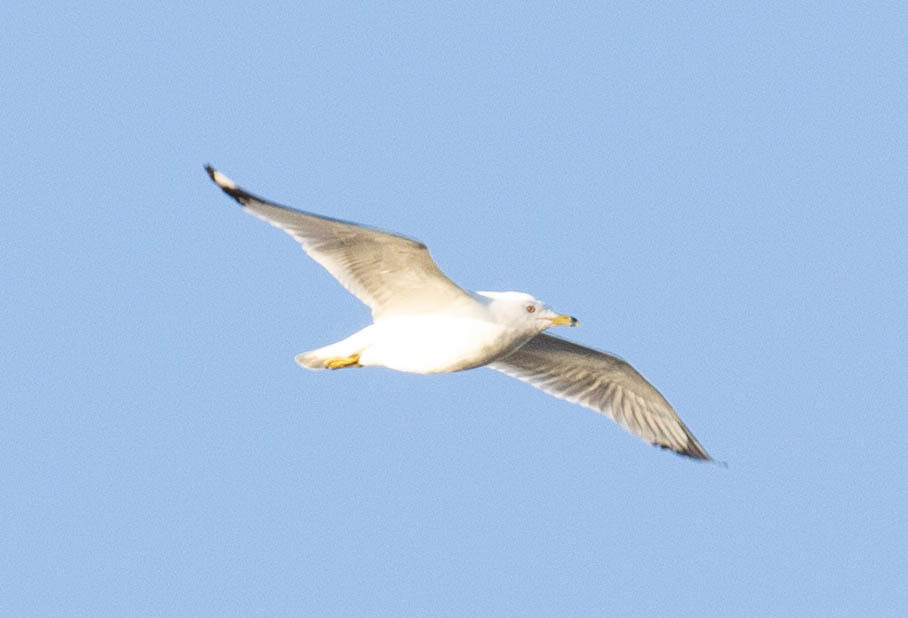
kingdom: Animalia
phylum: Chordata
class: Aves
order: Charadriiformes
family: Laridae
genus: Larus
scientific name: Larus delawarensis
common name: Ring-billed gull
